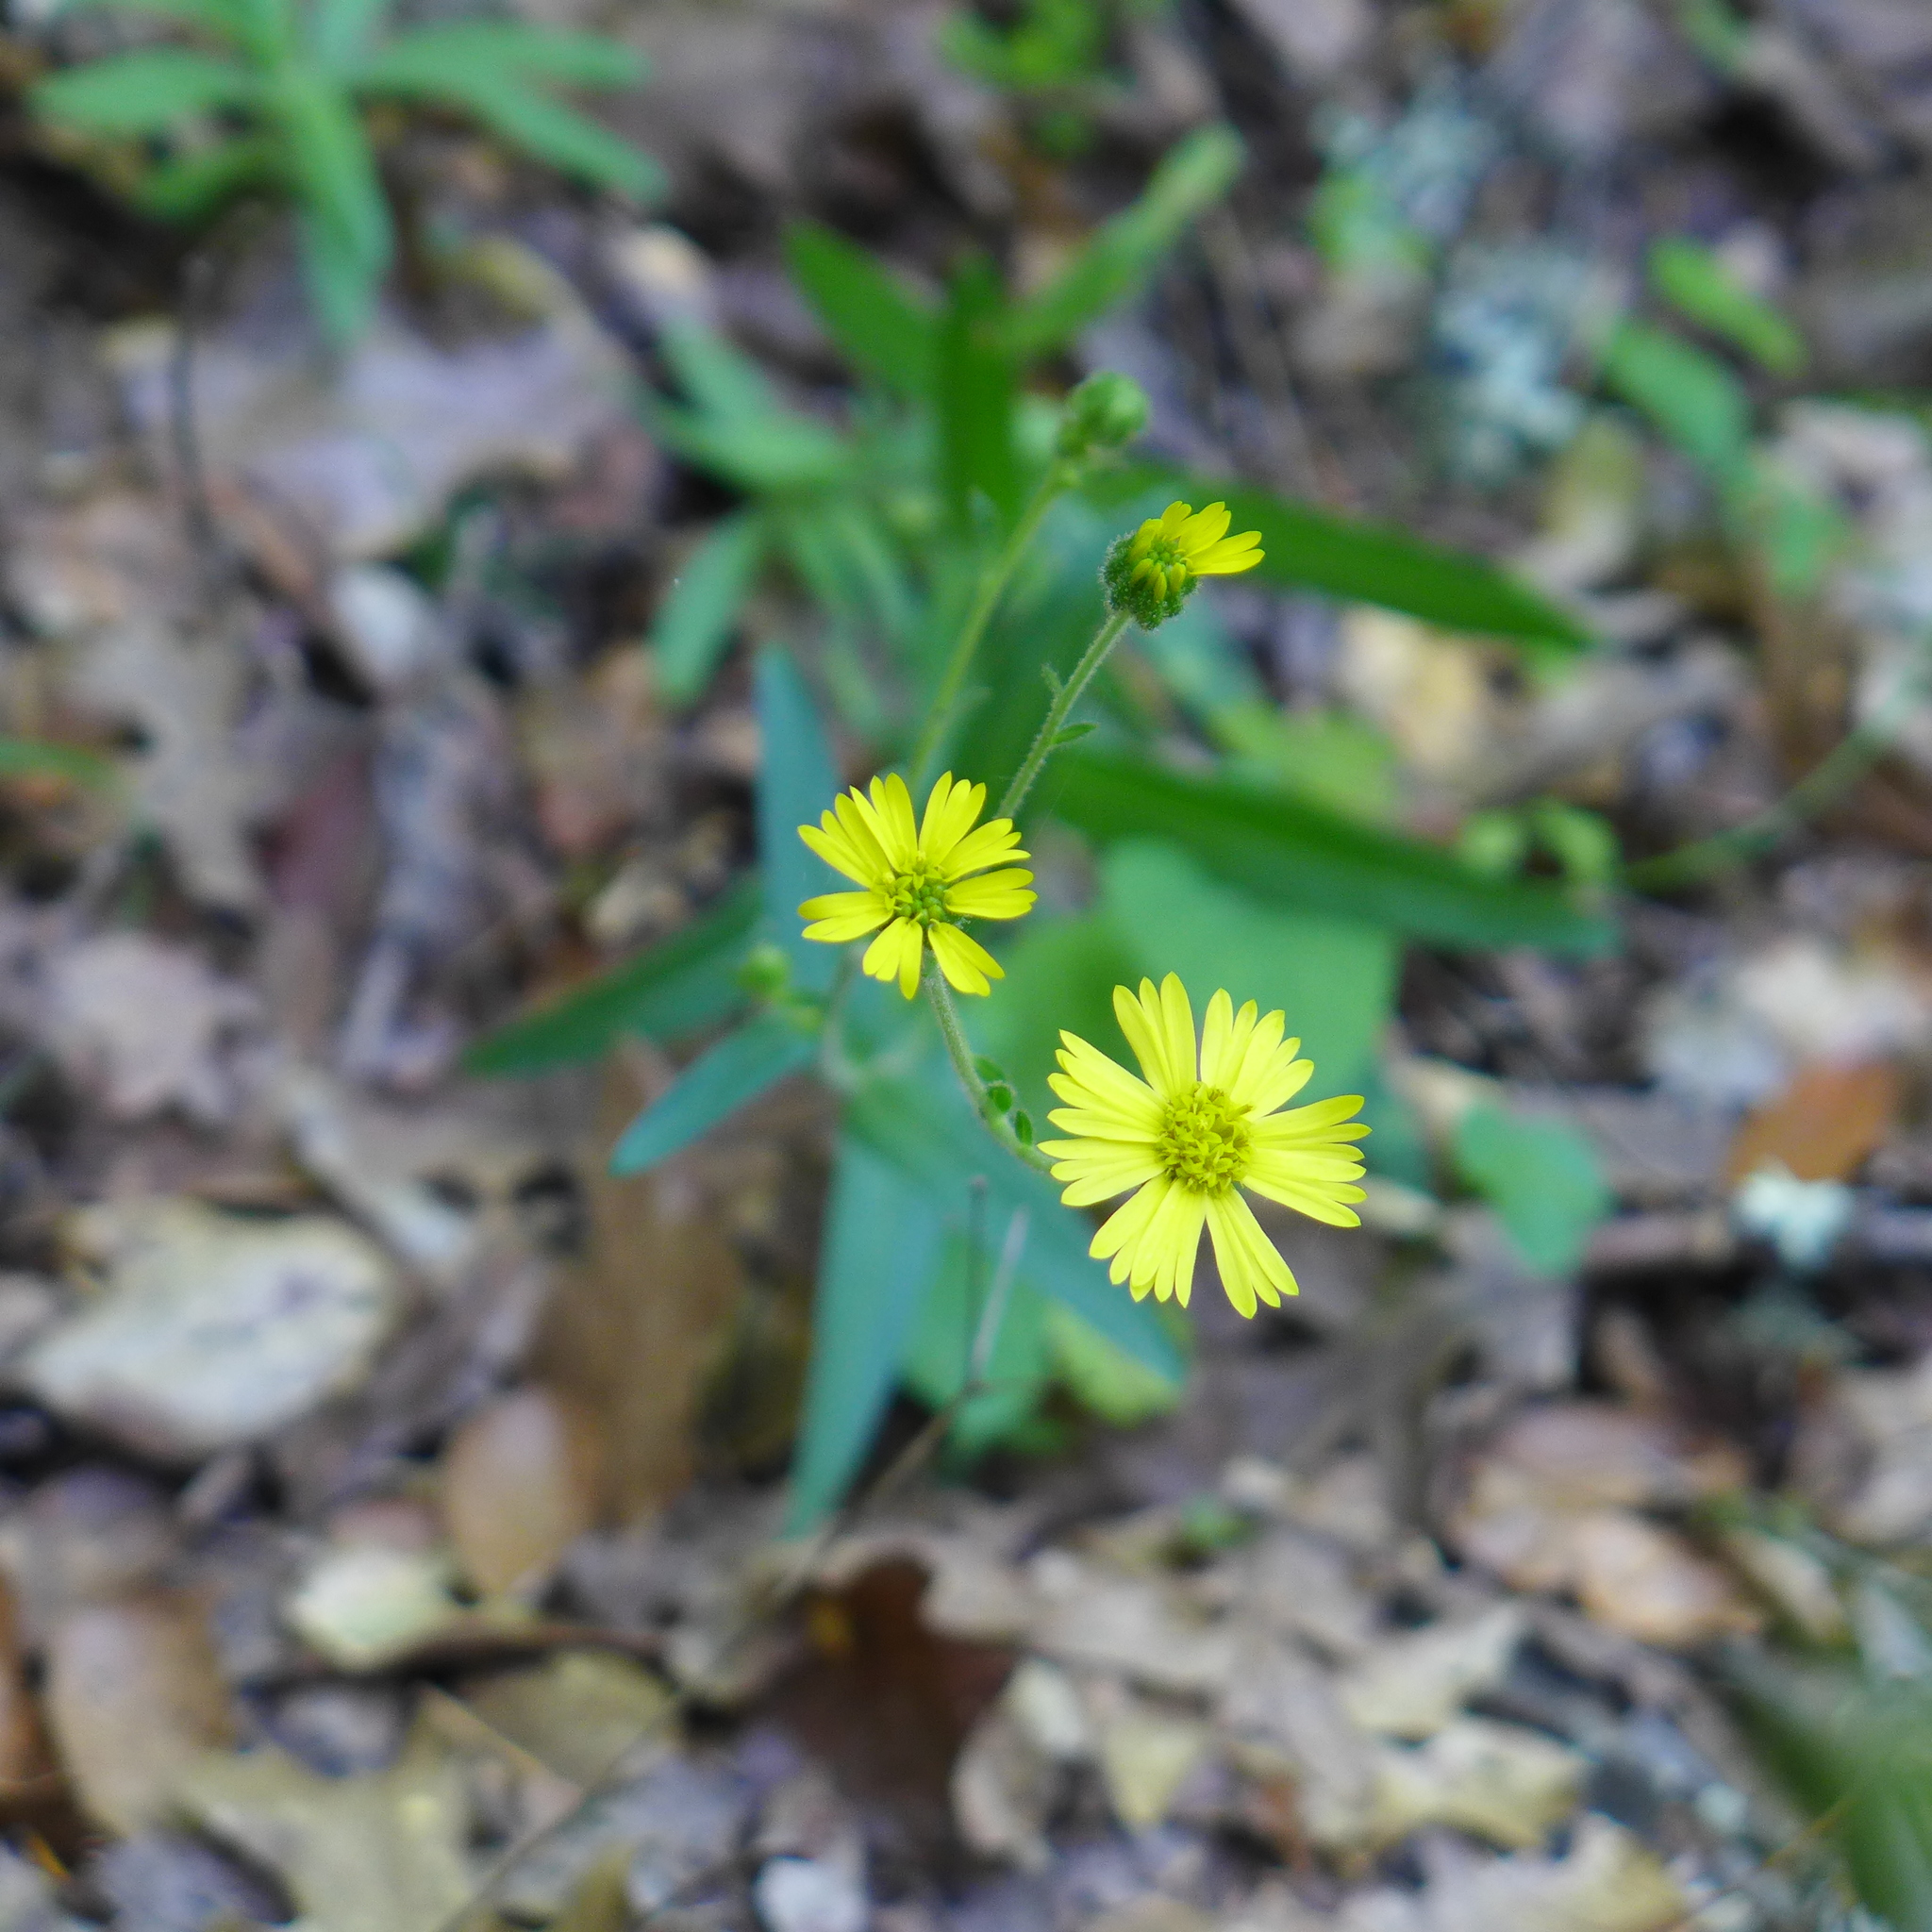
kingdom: Plantae
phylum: Tracheophyta
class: Magnoliopsida
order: Asterales
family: Asteraceae
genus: Anisocarpus
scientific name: Anisocarpus madioides
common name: Woodland madia
